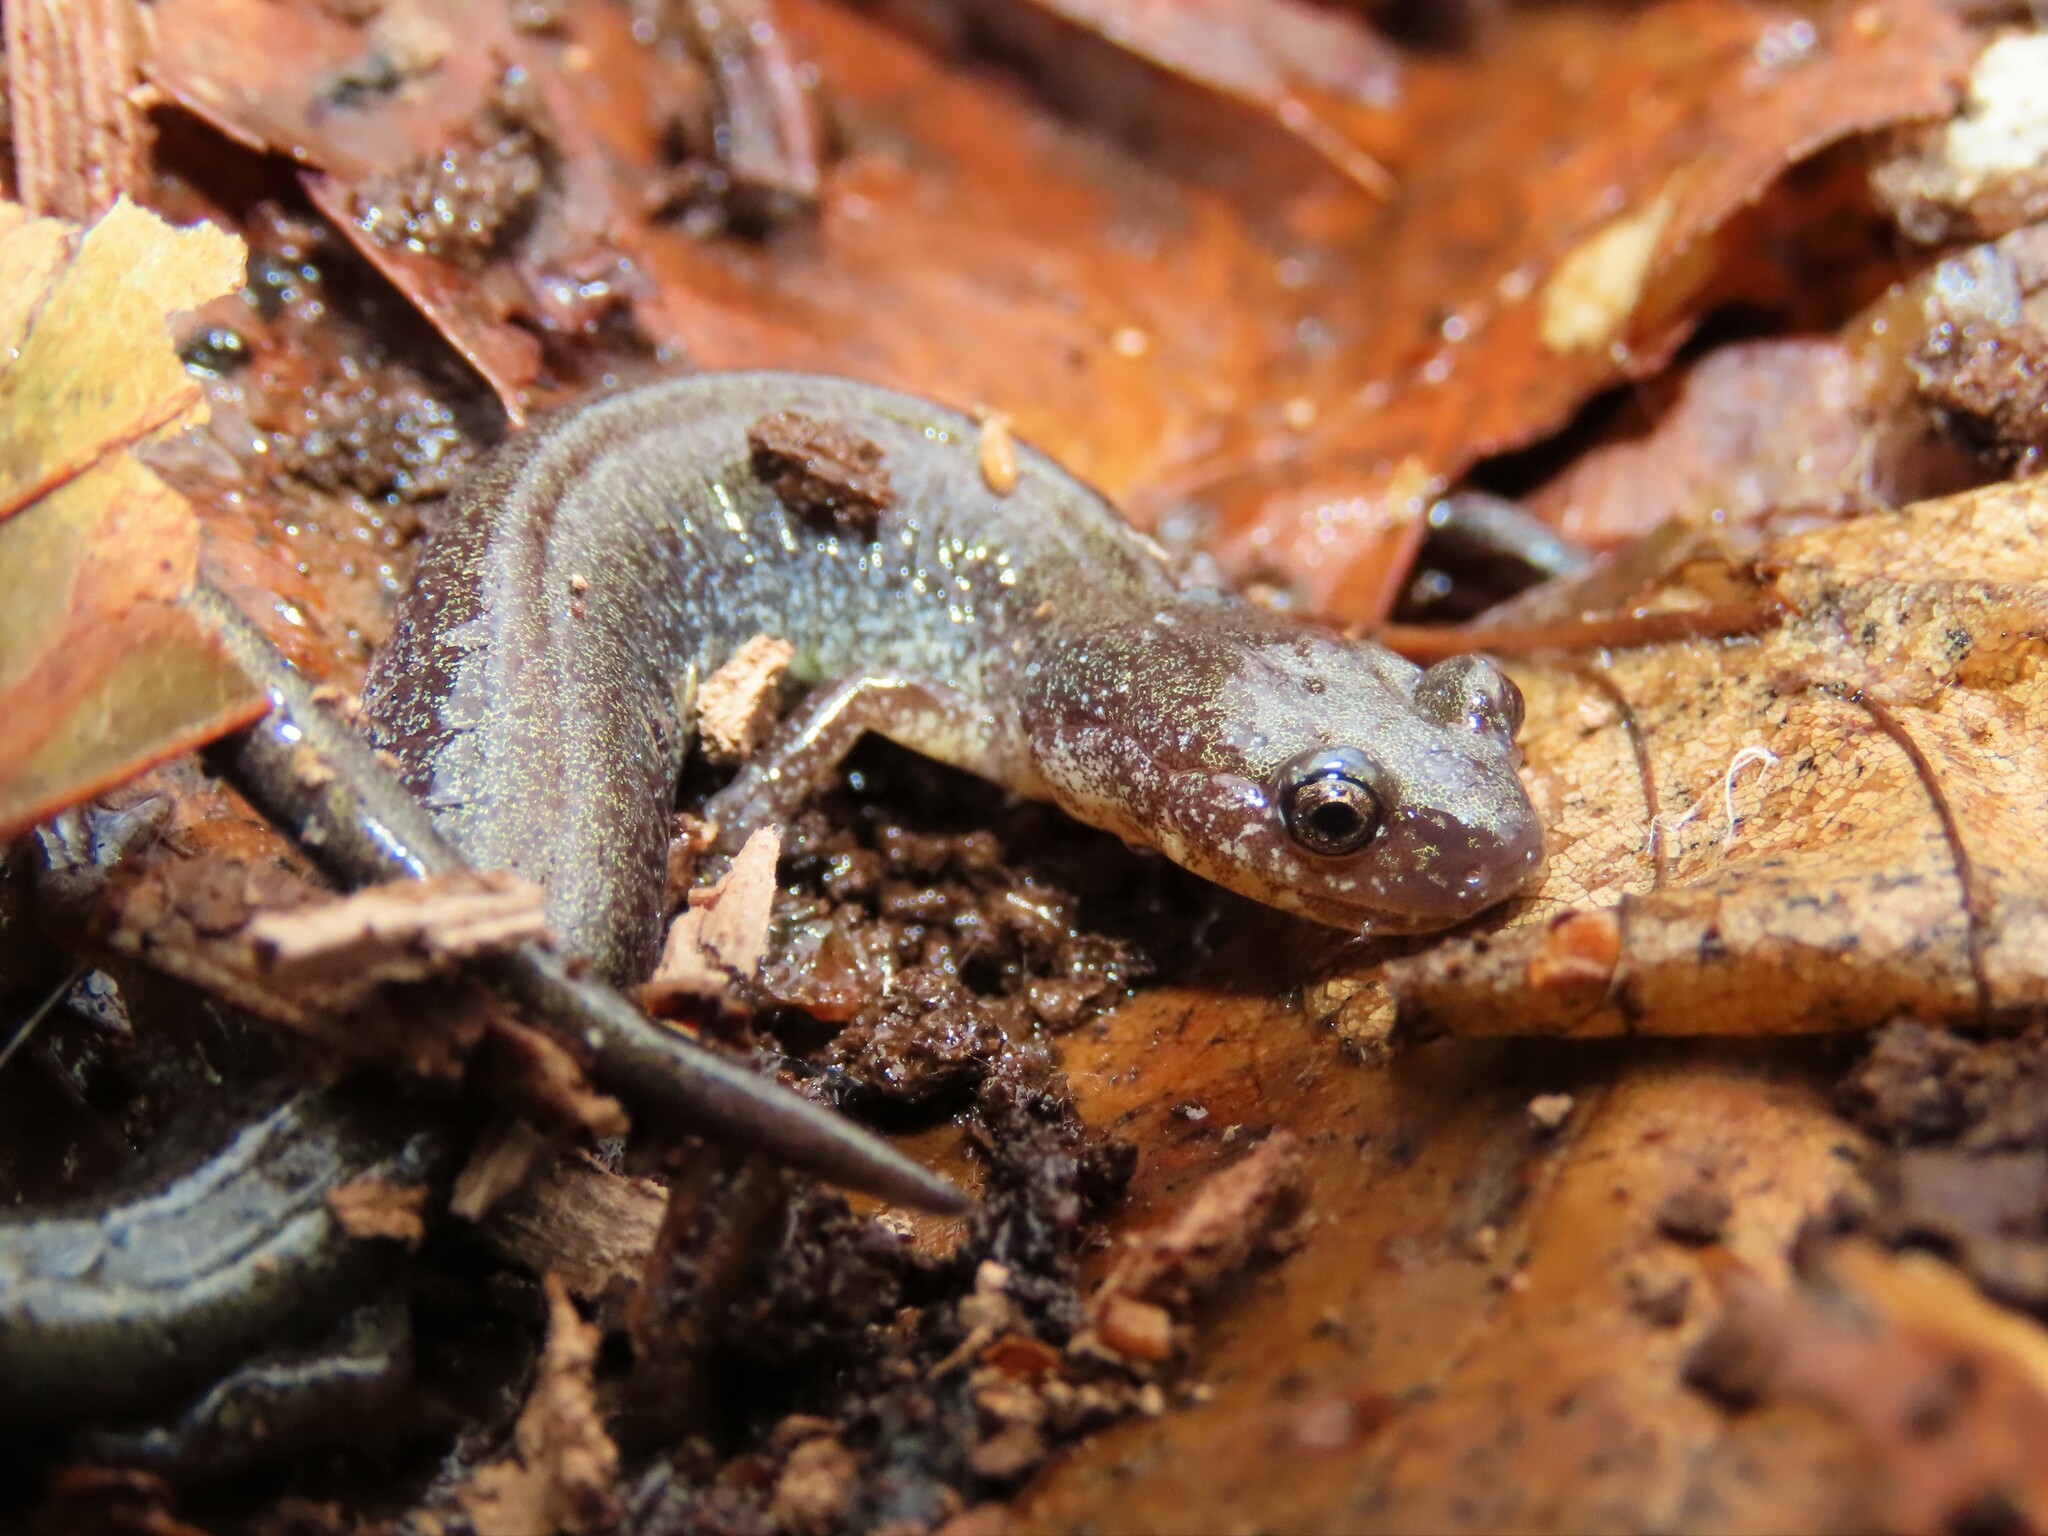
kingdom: Animalia
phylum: Chordata
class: Amphibia
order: Caudata
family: Plethodontidae
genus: Plethodon
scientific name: Plethodon cinereus
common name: Redback salamander
